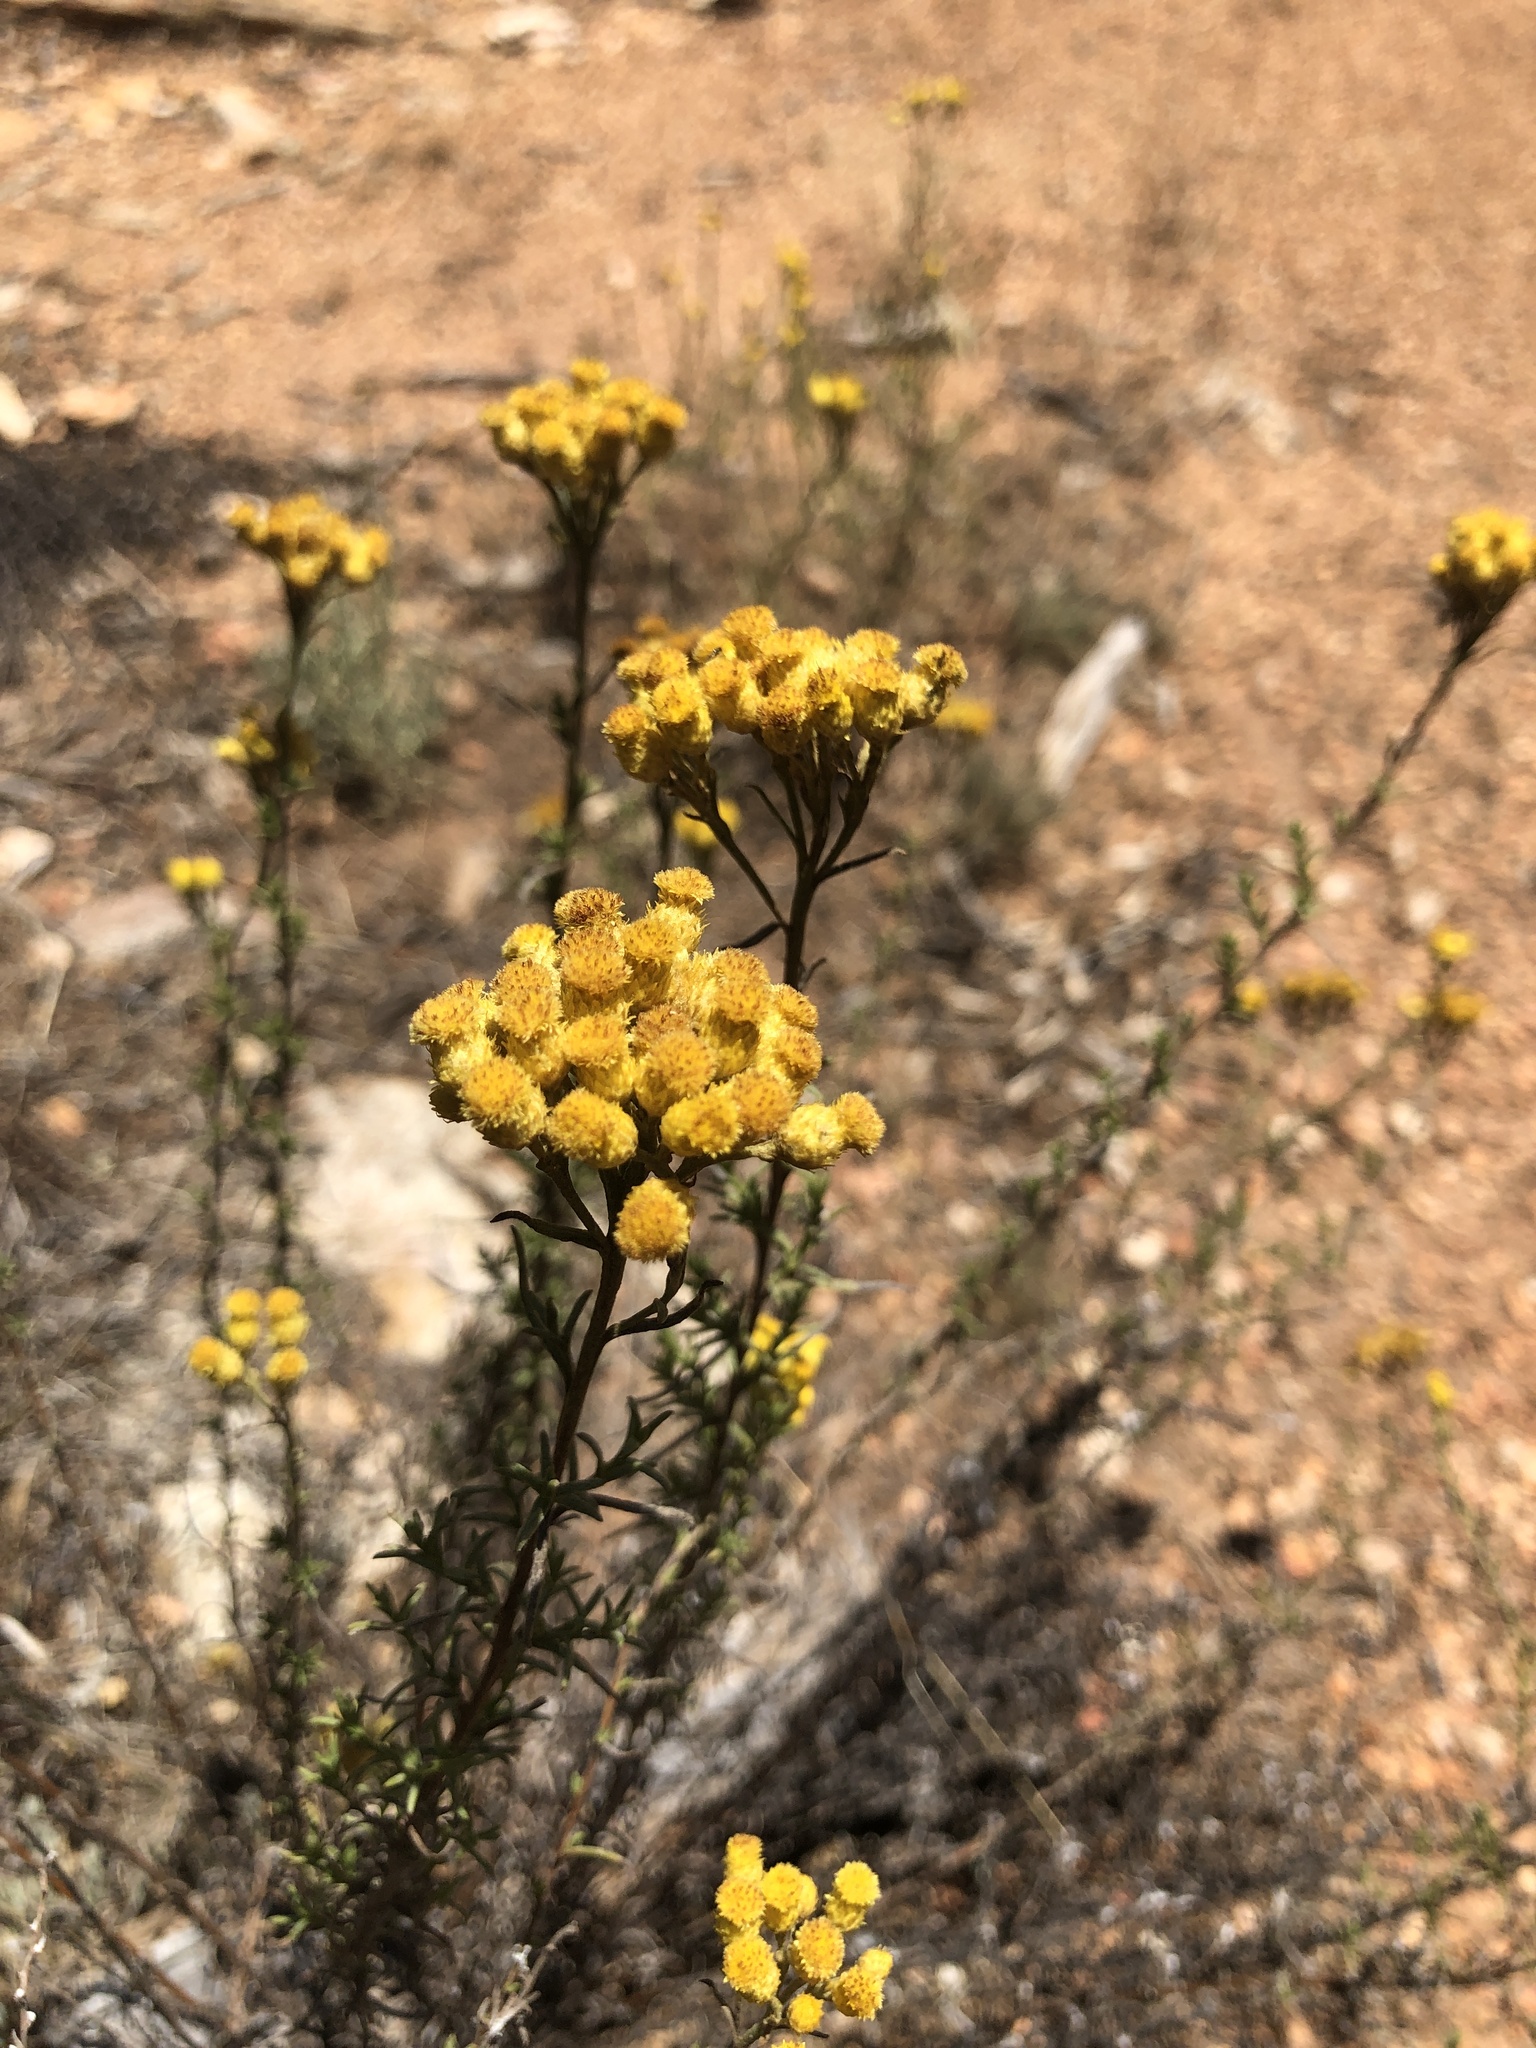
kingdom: Plantae
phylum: Tracheophyta
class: Magnoliopsida
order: Asterales
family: Asteraceae
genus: Chrysocephalum
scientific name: Chrysocephalum semipapposum
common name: Clustered everlasting
